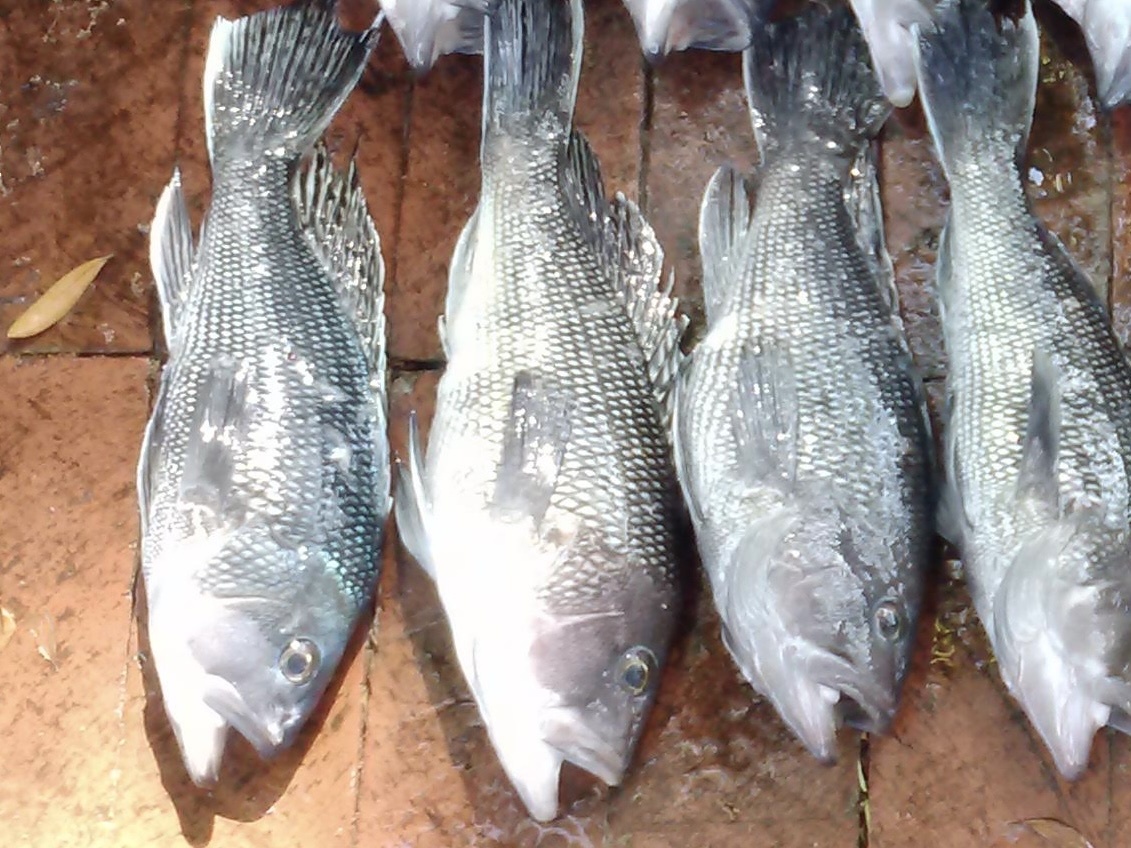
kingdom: Animalia
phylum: Chordata
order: Perciformes
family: Serranidae
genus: Centropristis
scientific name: Centropristis striata
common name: Black sea bass
